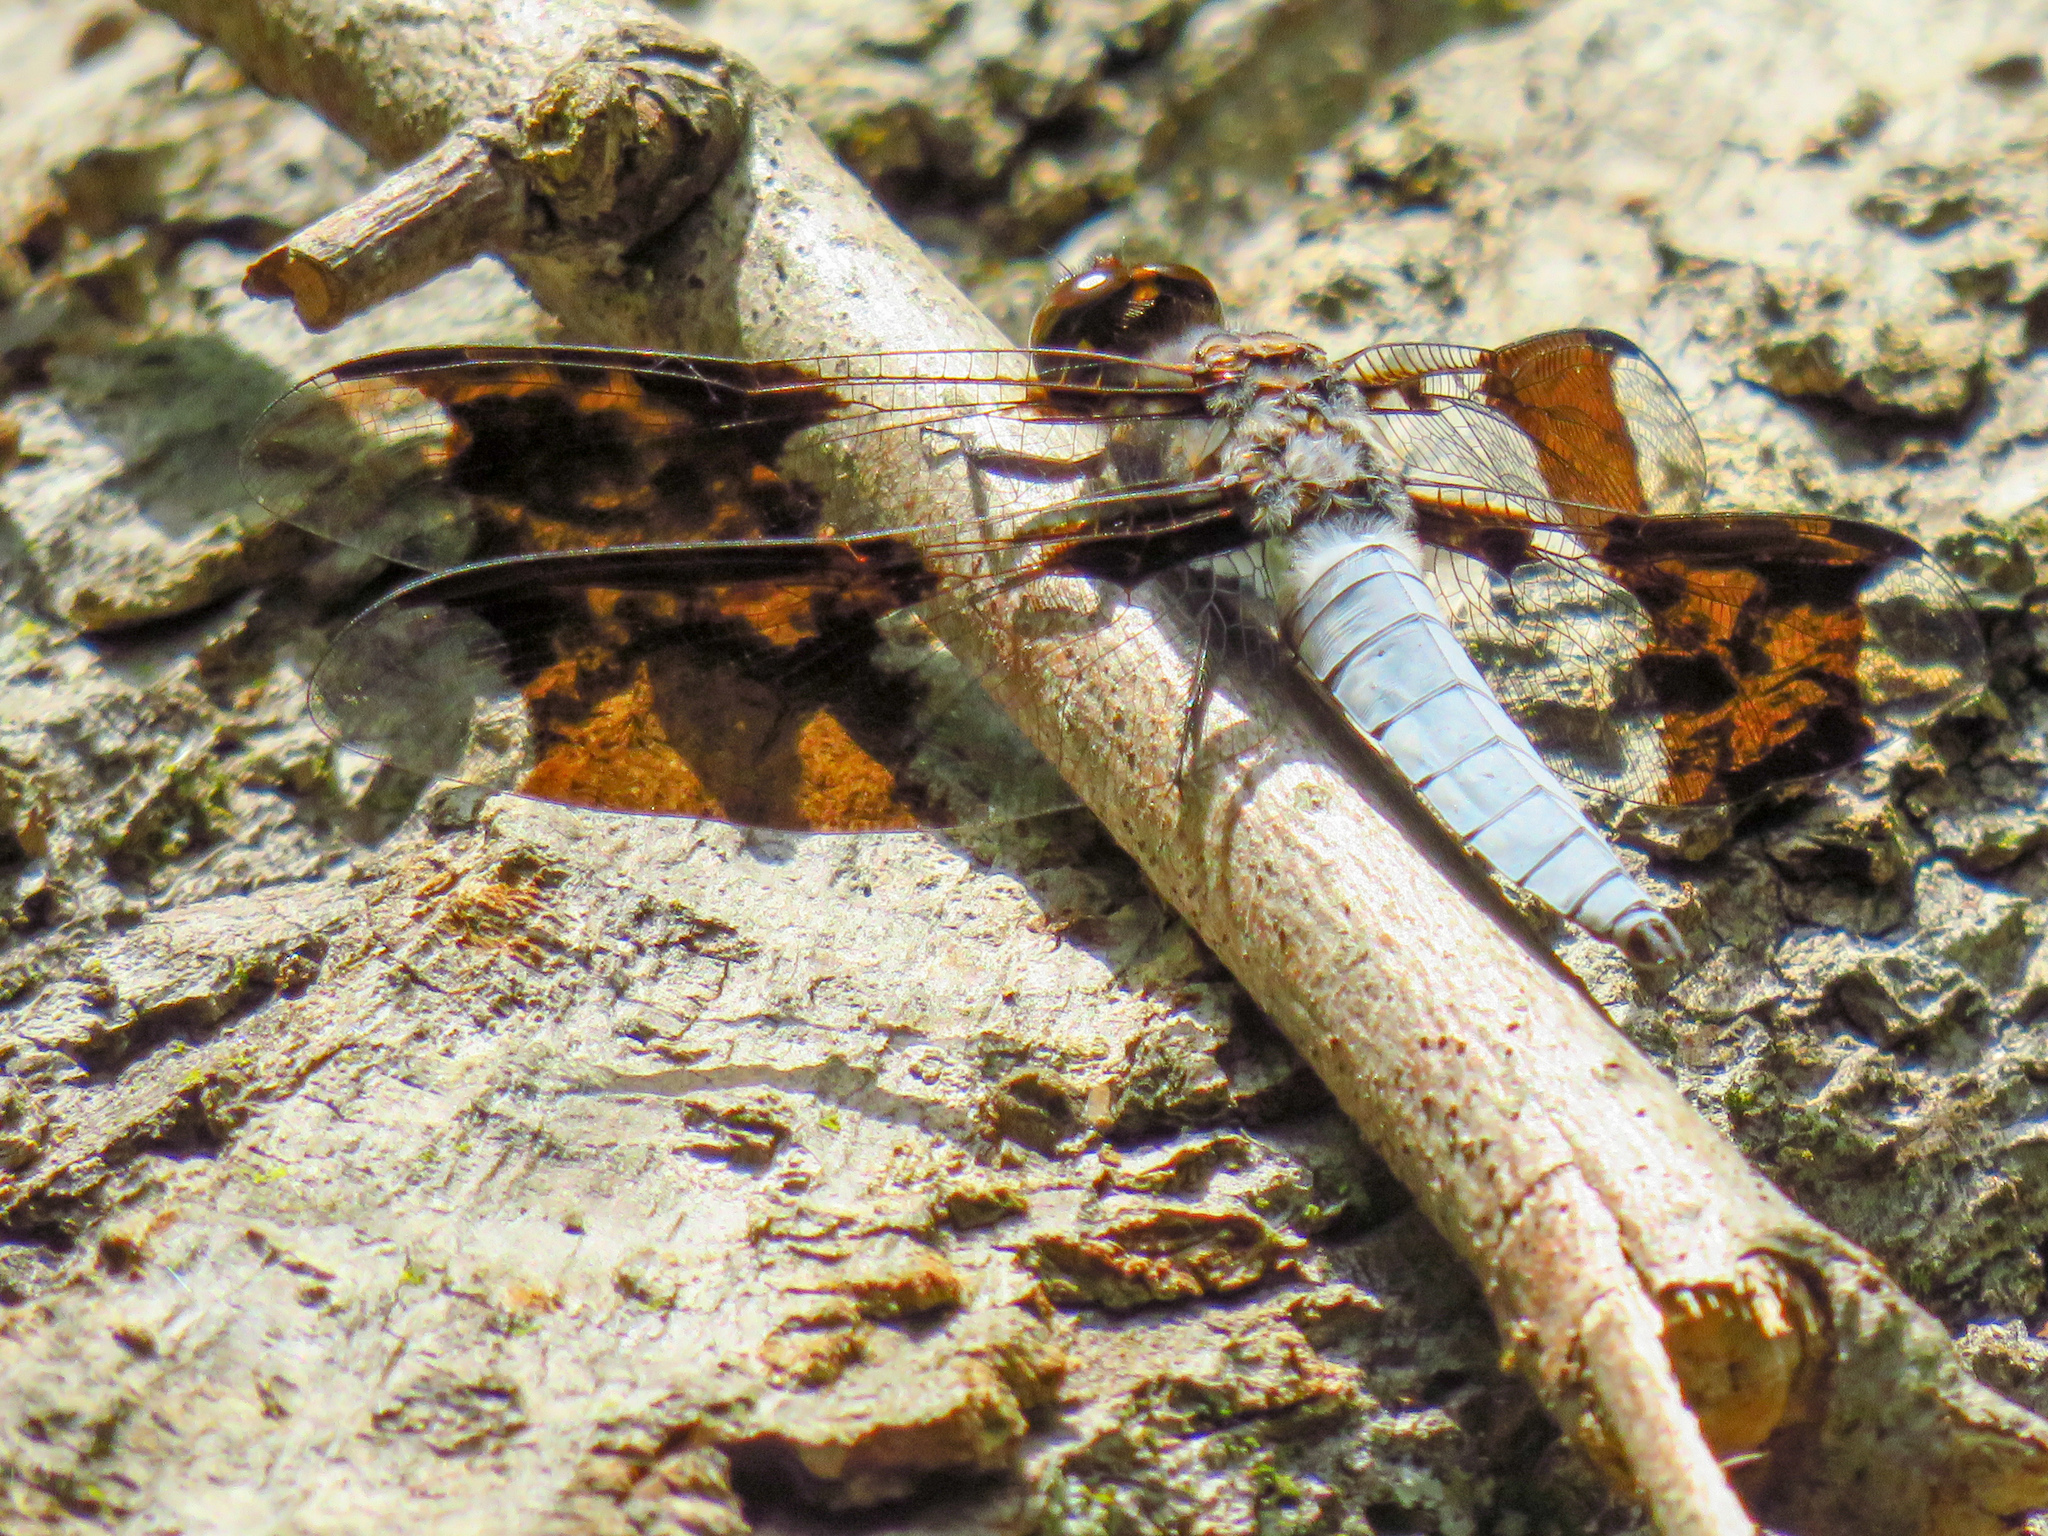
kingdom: Animalia
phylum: Arthropoda
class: Insecta
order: Odonata
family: Libellulidae
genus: Plathemis
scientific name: Plathemis lydia
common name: Common whitetail
